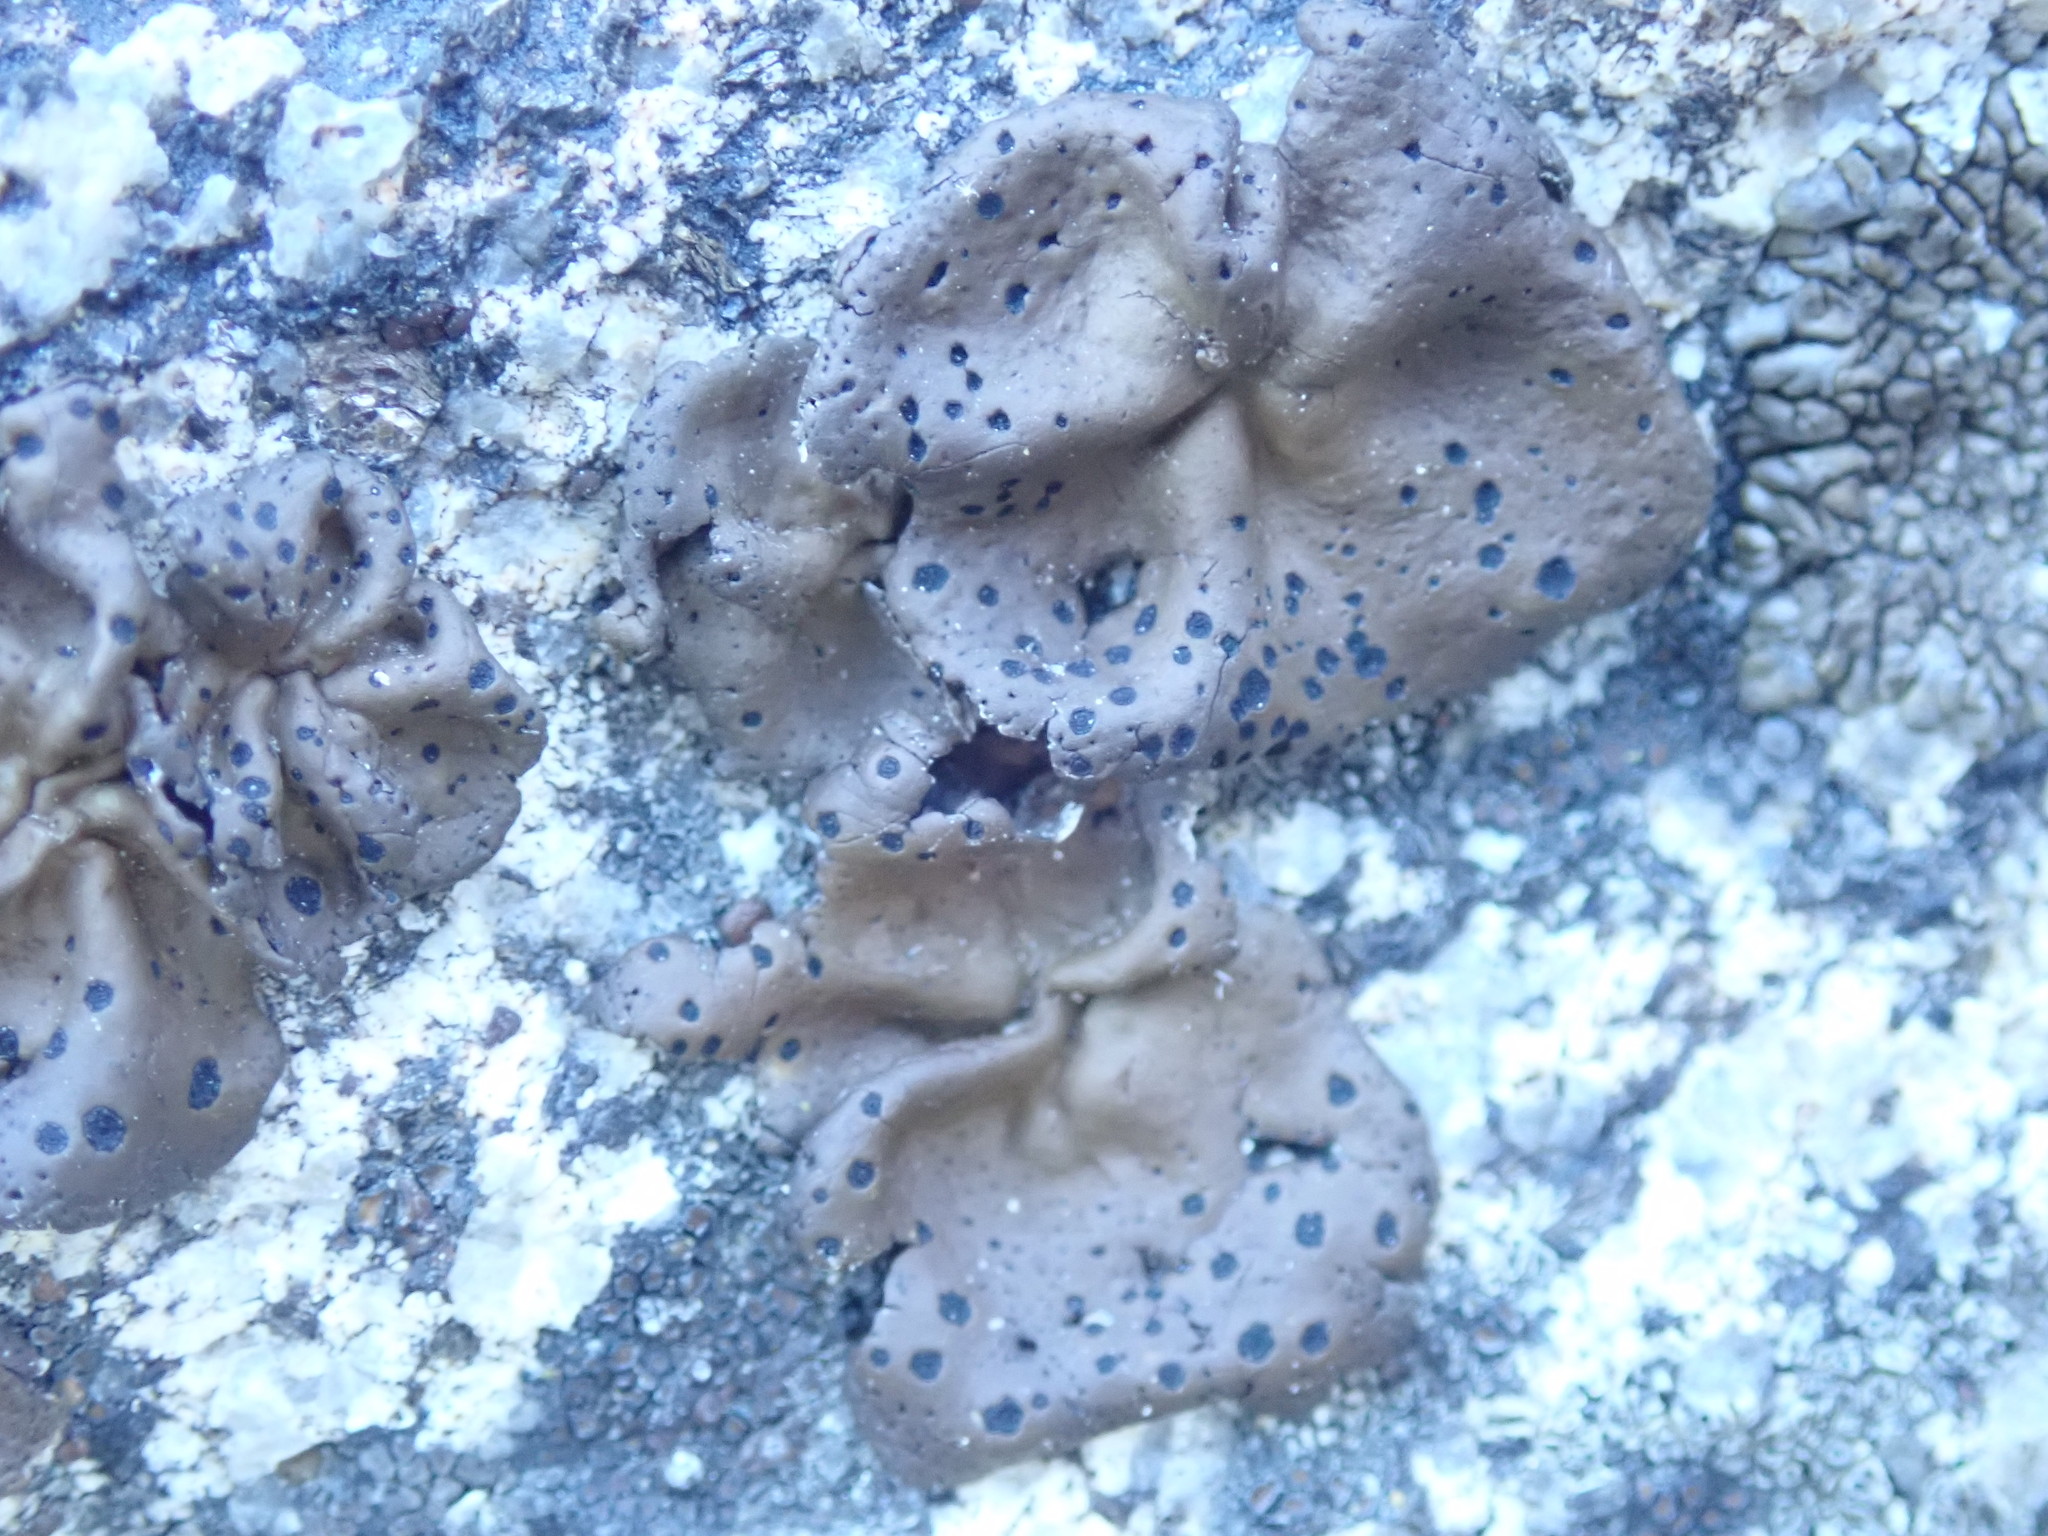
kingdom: Fungi
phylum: Ascomycota
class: Lecanoromycetes
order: Umbilicariales
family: Umbilicariaceae
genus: Umbilicaria
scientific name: Umbilicaria phaea
